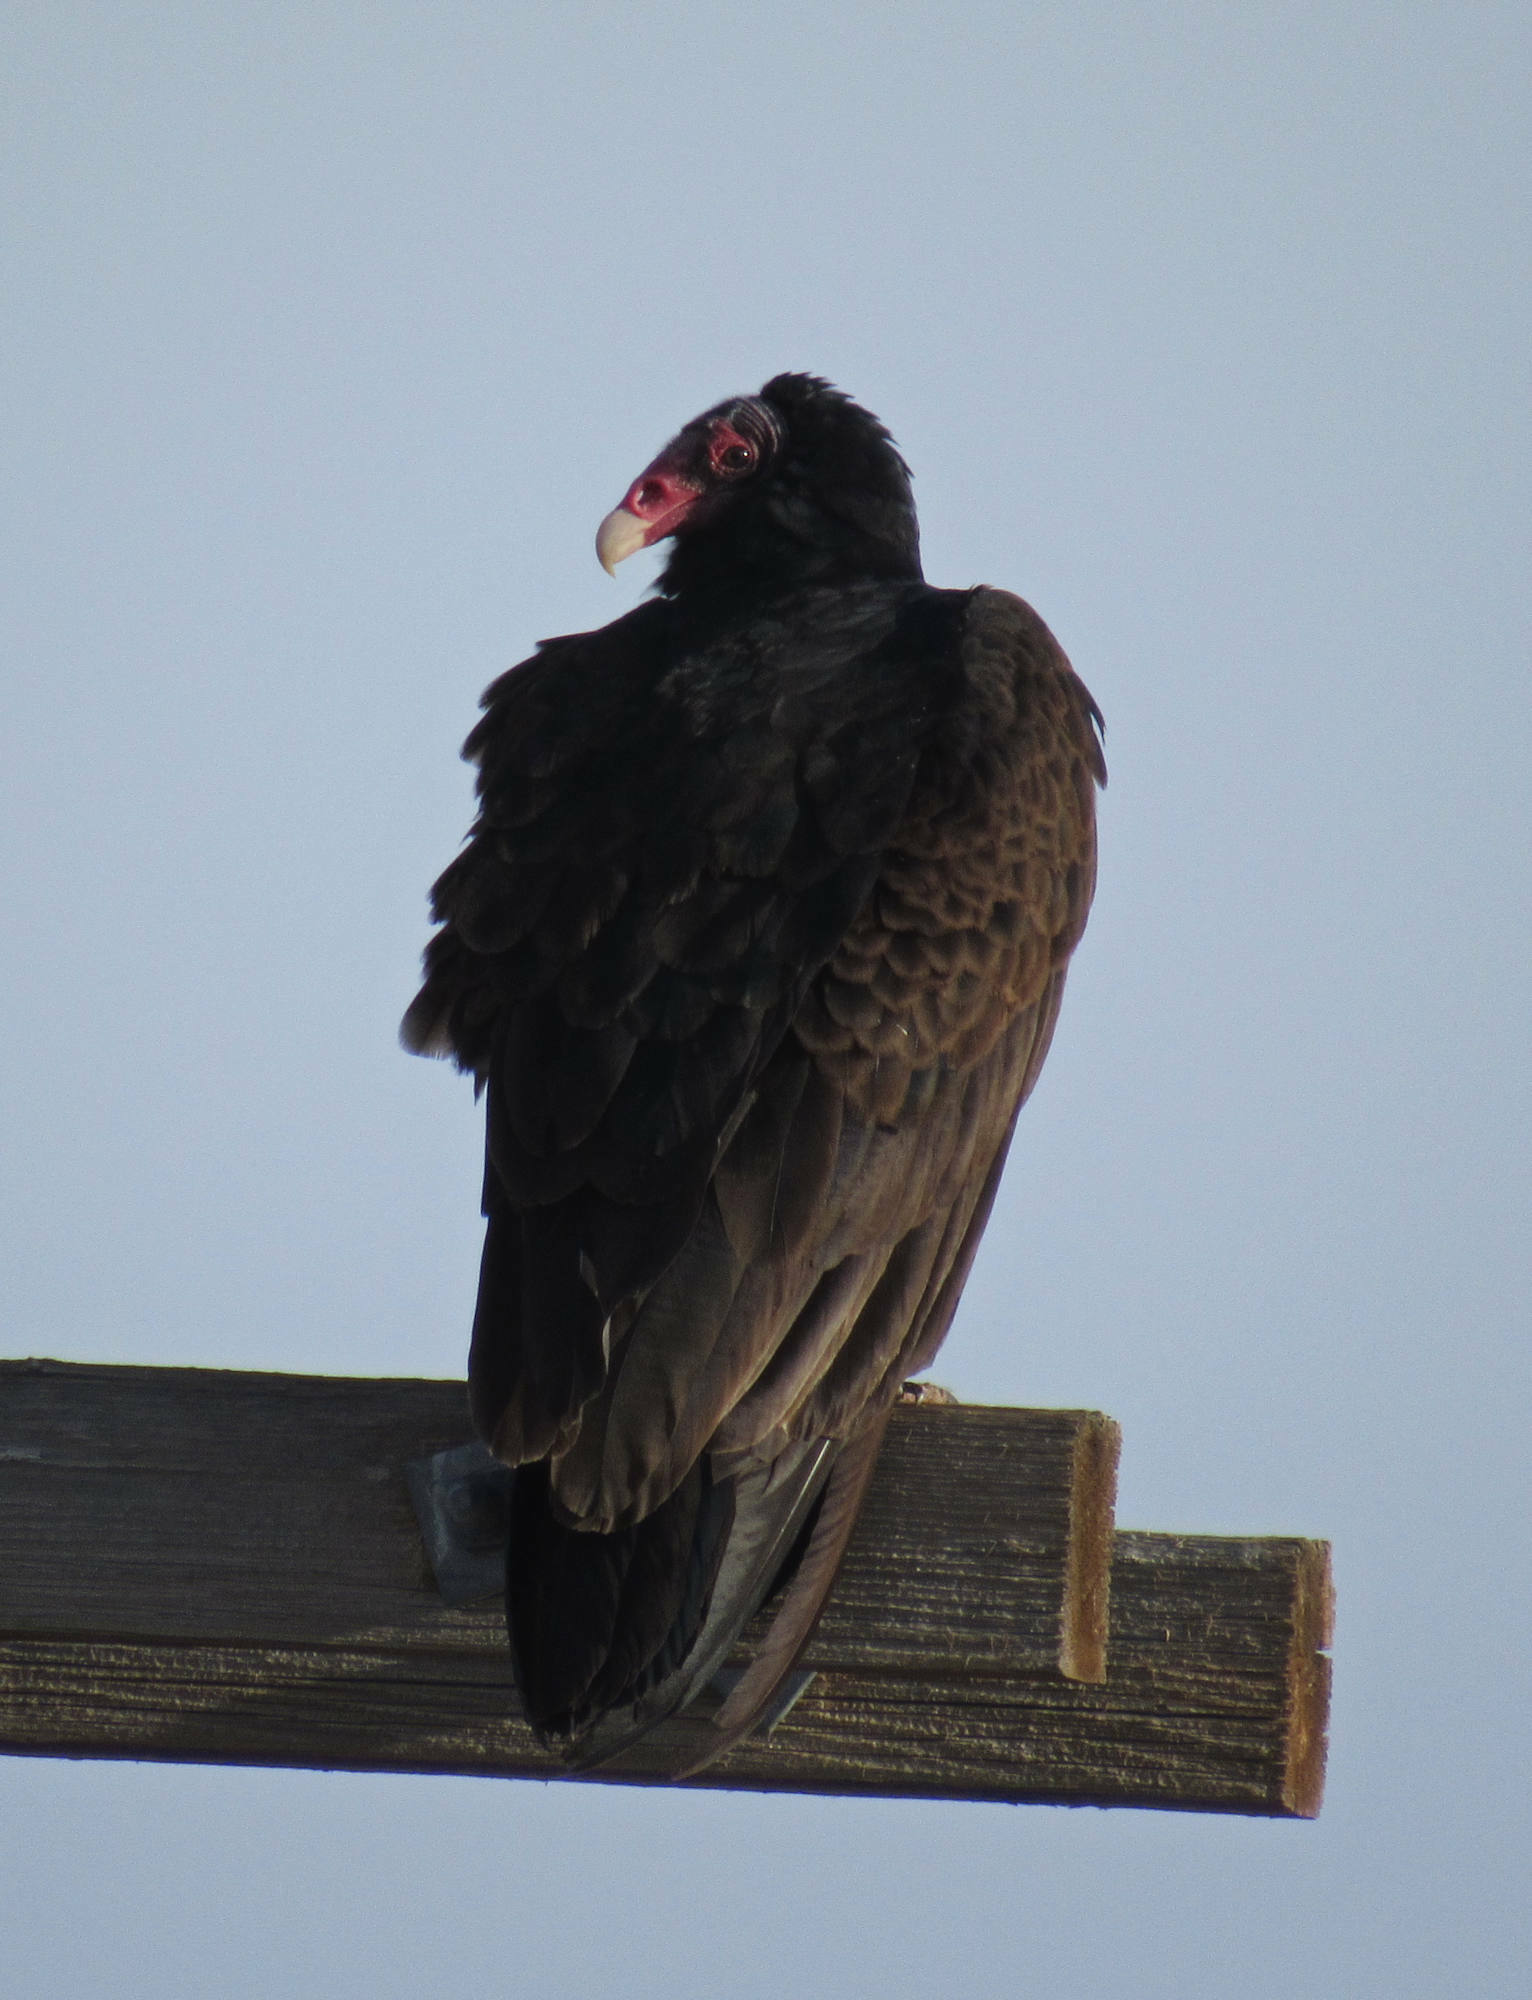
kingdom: Animalia
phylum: Chordata
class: Aves
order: Accipitriformes
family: Cathartidae
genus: Cathartes
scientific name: Cathartes aura
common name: Turkey vulture
